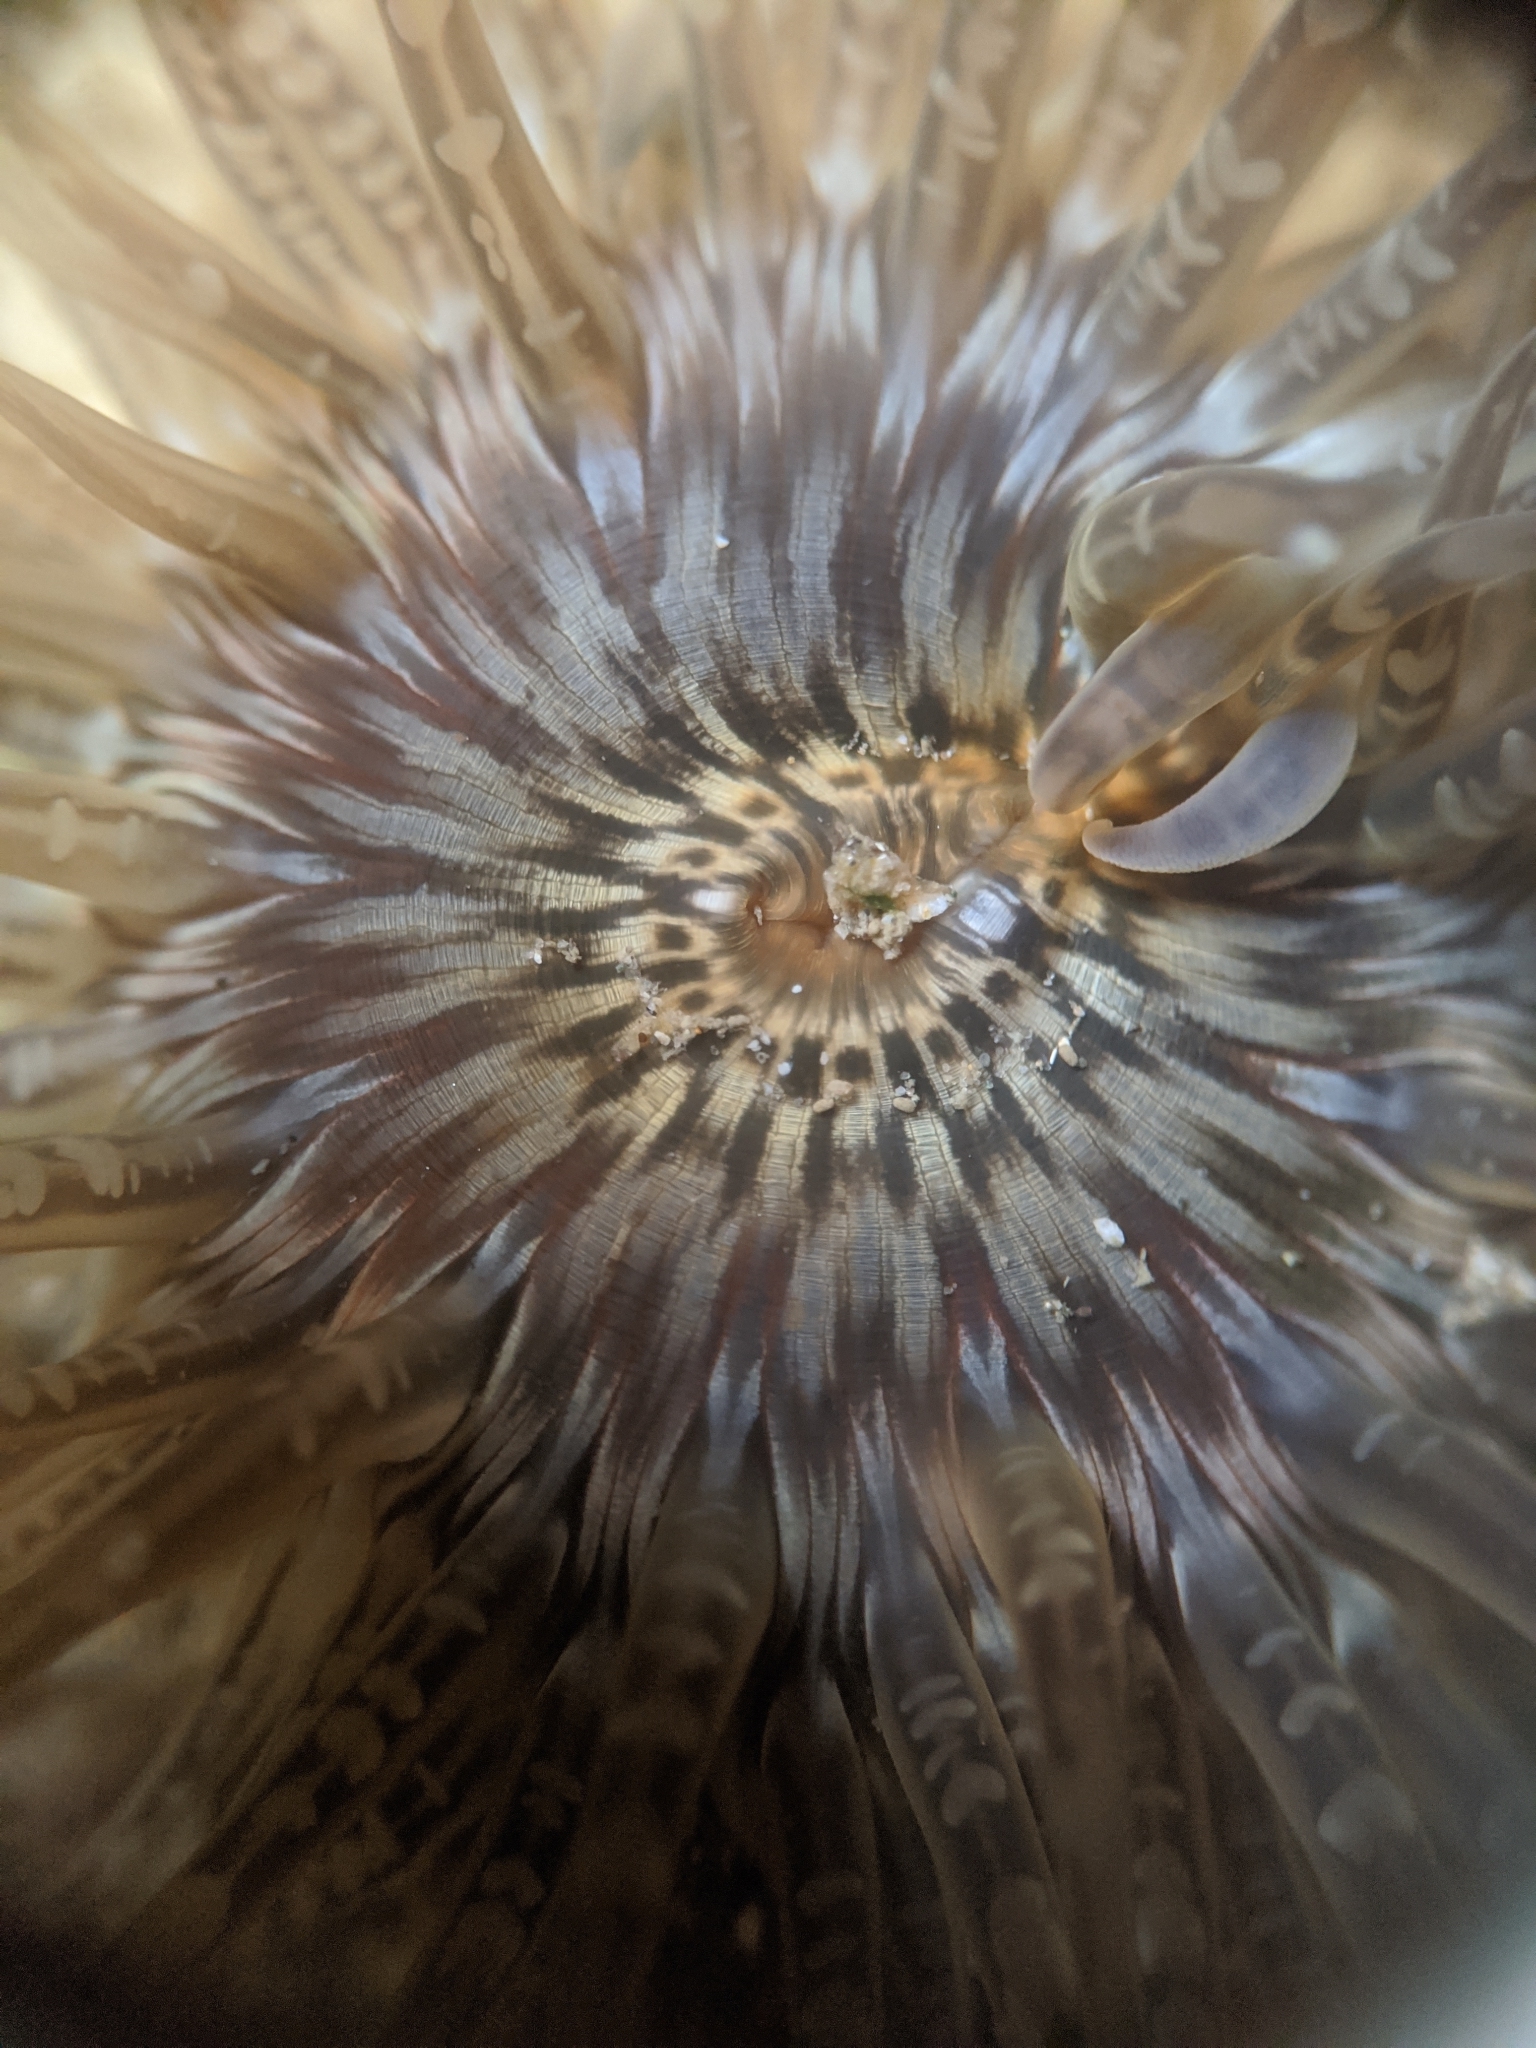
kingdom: Animalia
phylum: Cnidaria
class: Anthozoa
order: Actiniaria
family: Actiniidae
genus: Anthopleura
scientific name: Anthopleura artemisia
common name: Buried sea anemone
